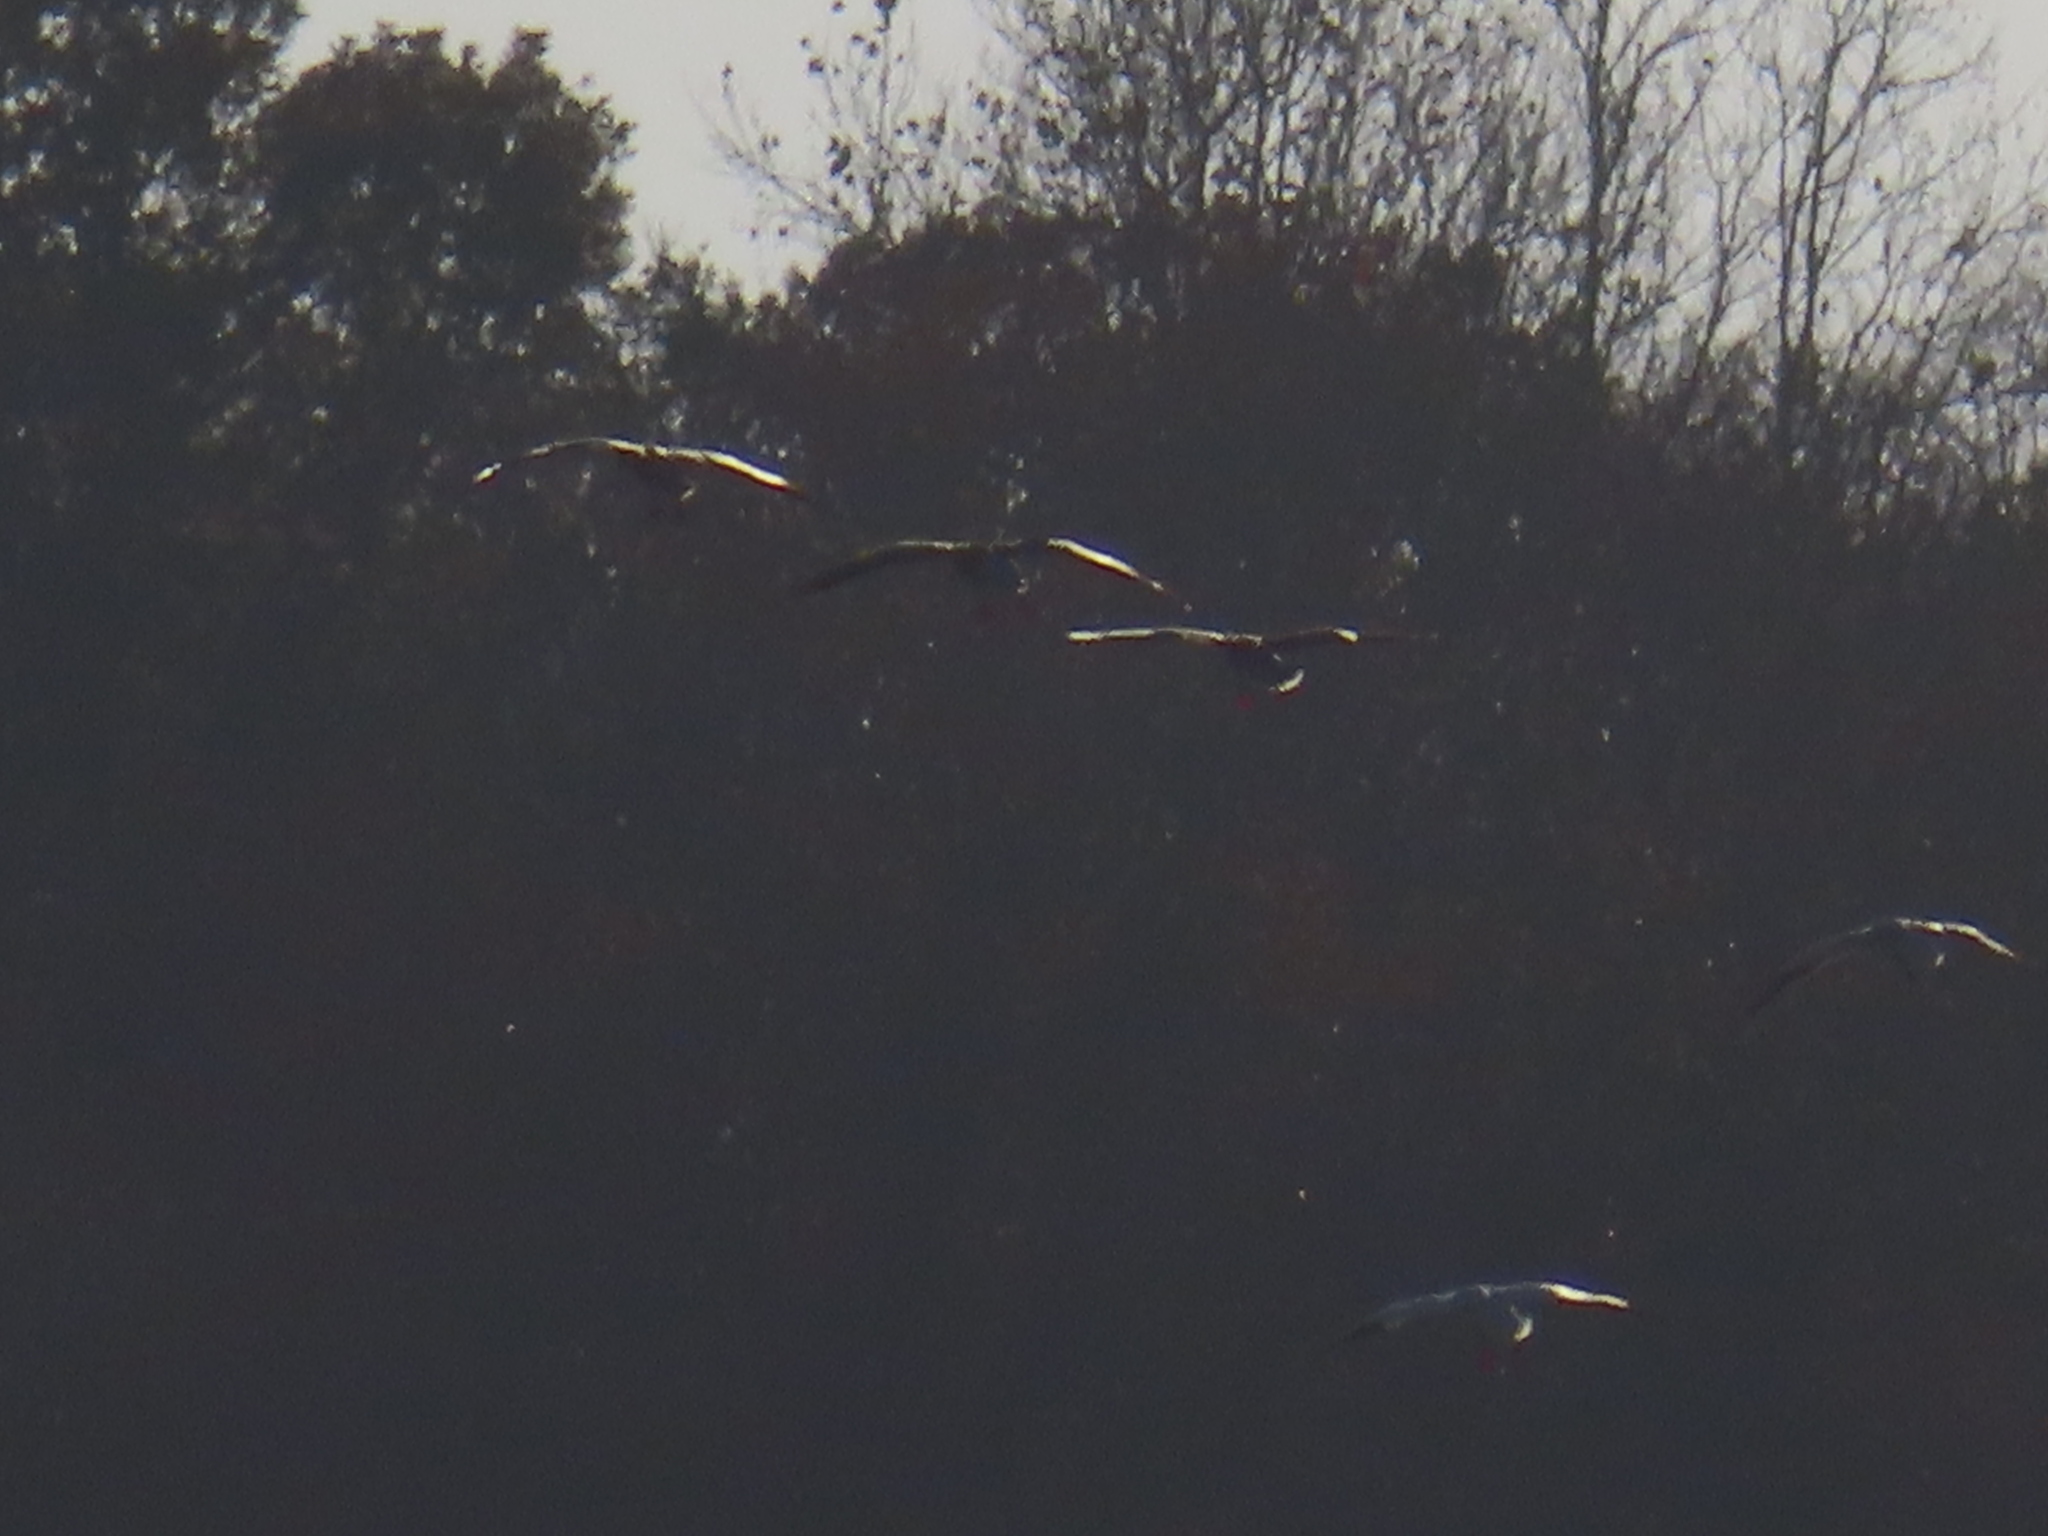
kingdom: Animalia
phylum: Chordata
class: Aves
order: Anseriformes
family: Anatidae
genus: Anser
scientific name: Anser caerulescens
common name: Snow goose
